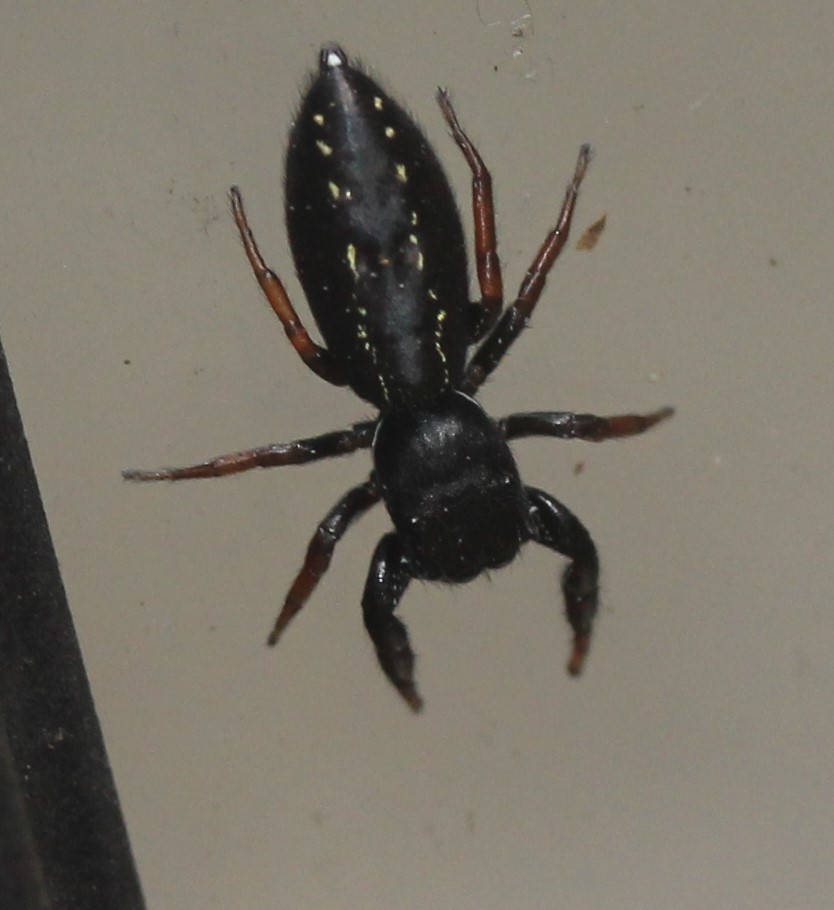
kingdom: Animalia
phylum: Arthropoda
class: Arachnida
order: Araneae
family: Salticidae
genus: Metacyrba
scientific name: Metacyrba taeniola
